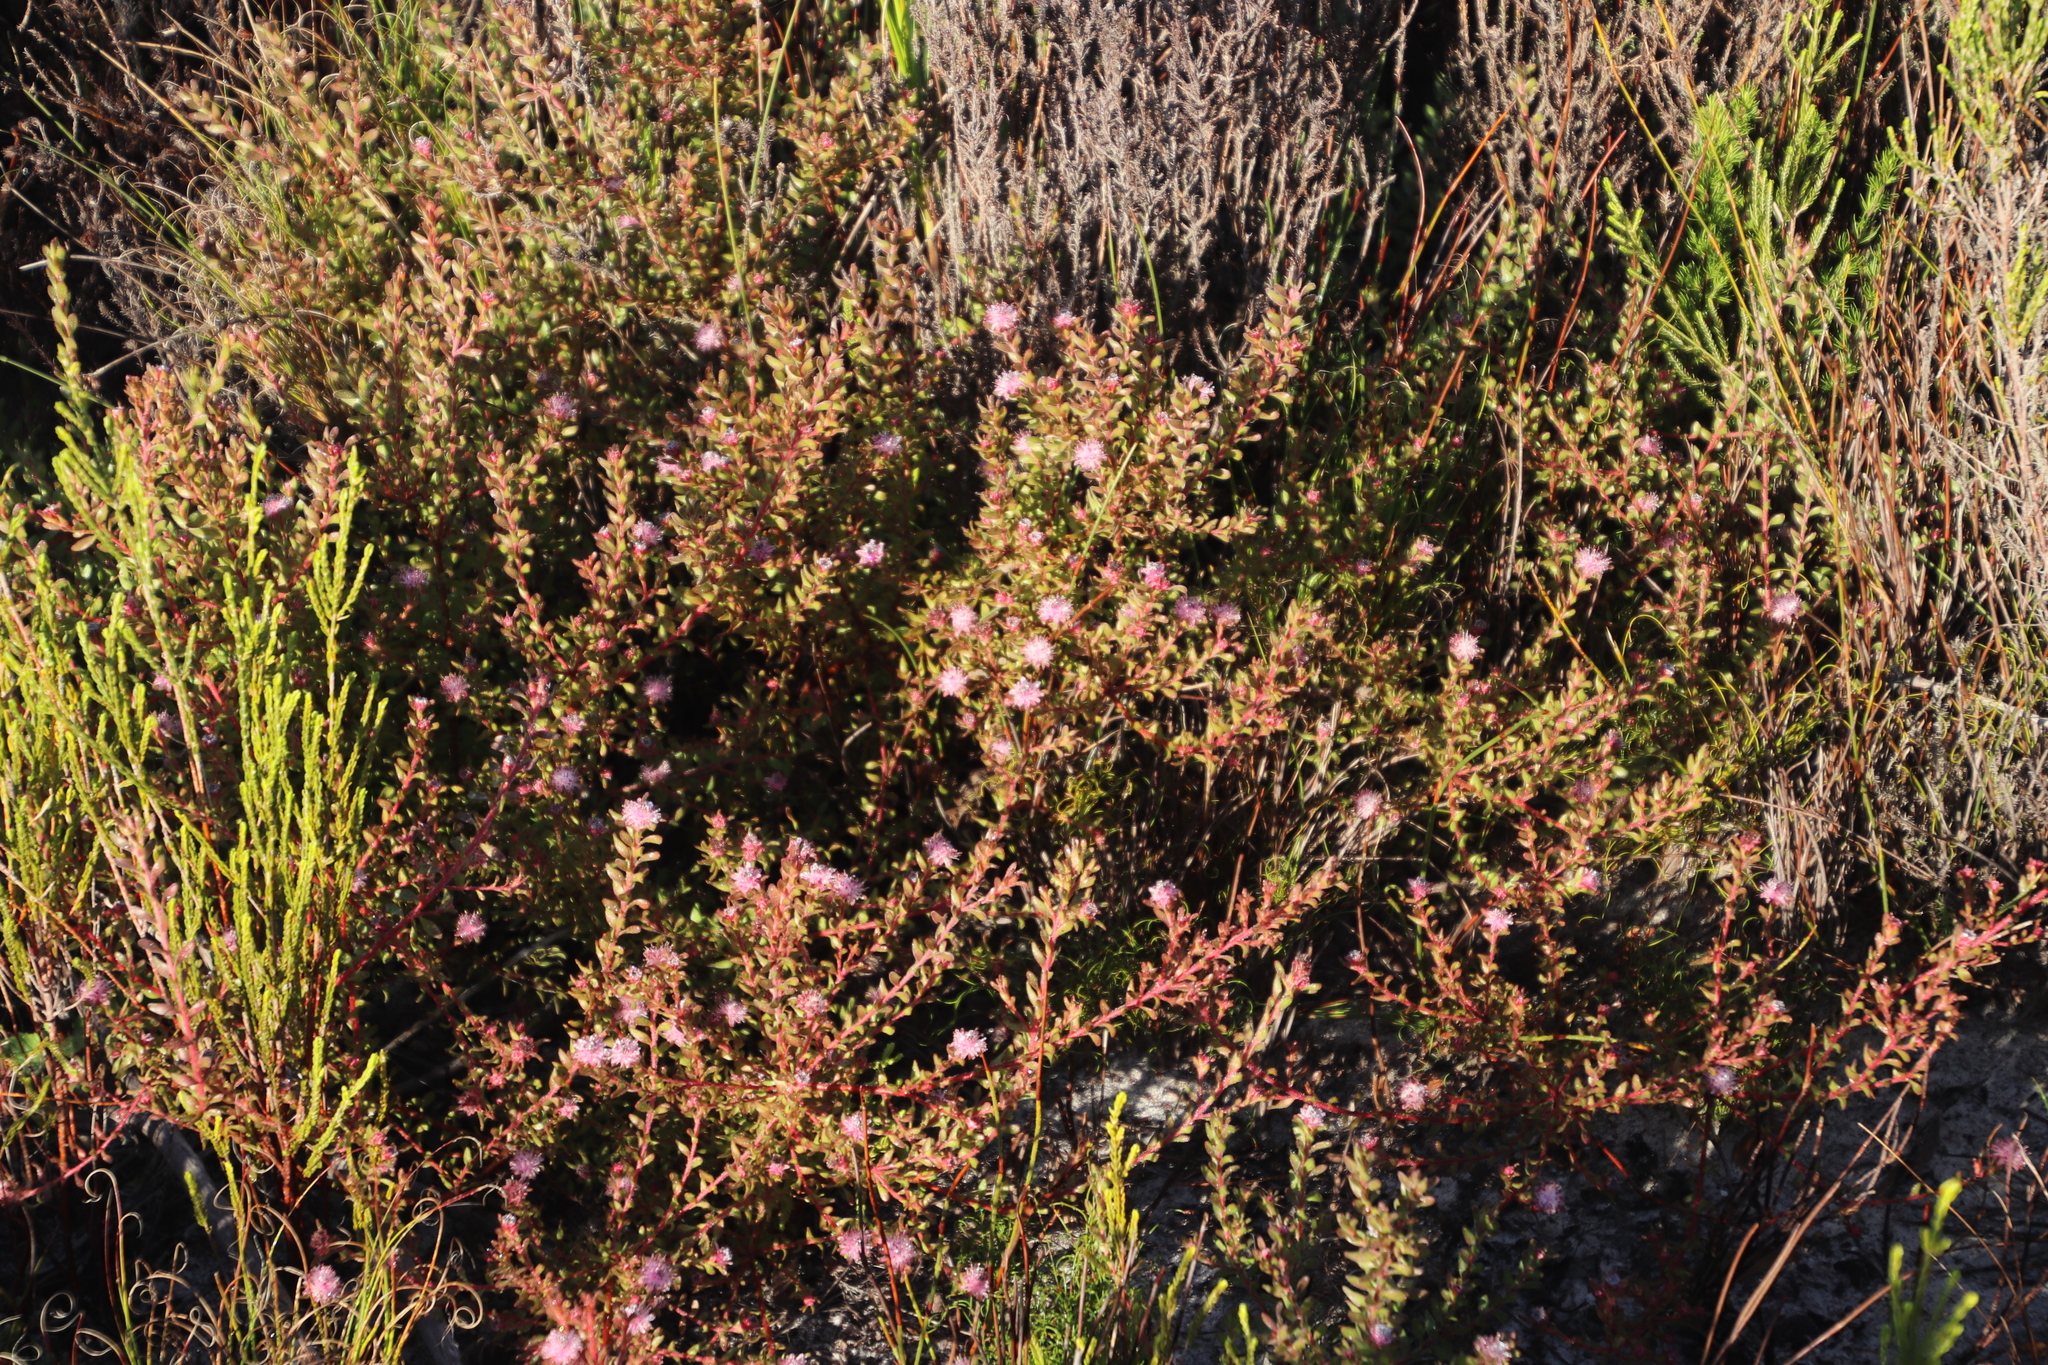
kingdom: Plantae
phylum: Tracheophyta
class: Magnoliopsida
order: Proteales
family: Proteaceae
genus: Diastella
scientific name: Diastella divaricata
